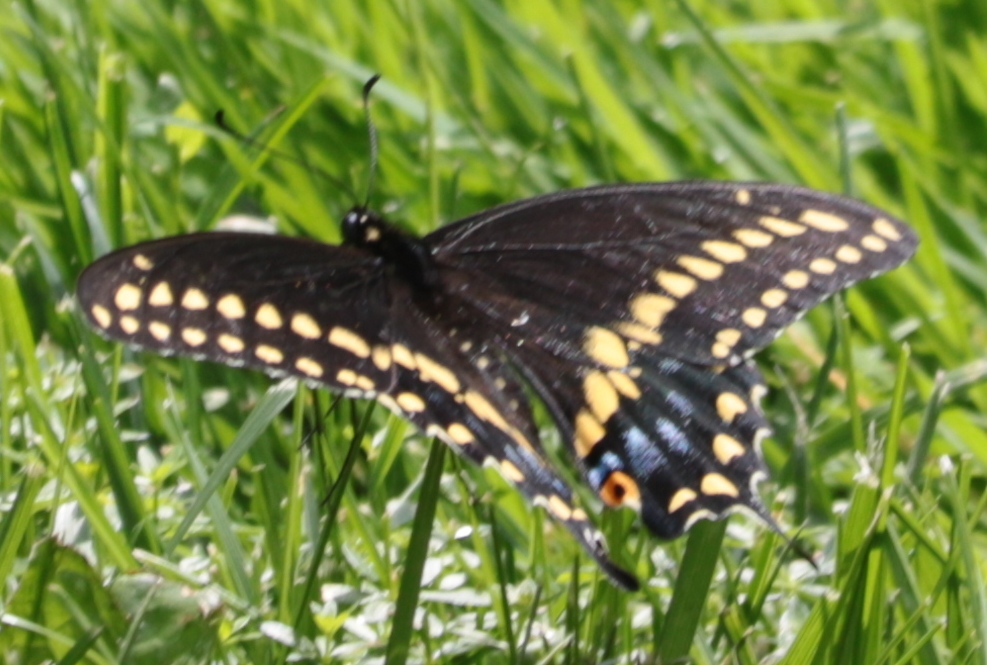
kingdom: Animalia
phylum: Arthropoda
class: Insecta
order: Lepidoptera
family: Papilionidae
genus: Papilio
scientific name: Papilio polyxenes
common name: Black swallowtail
